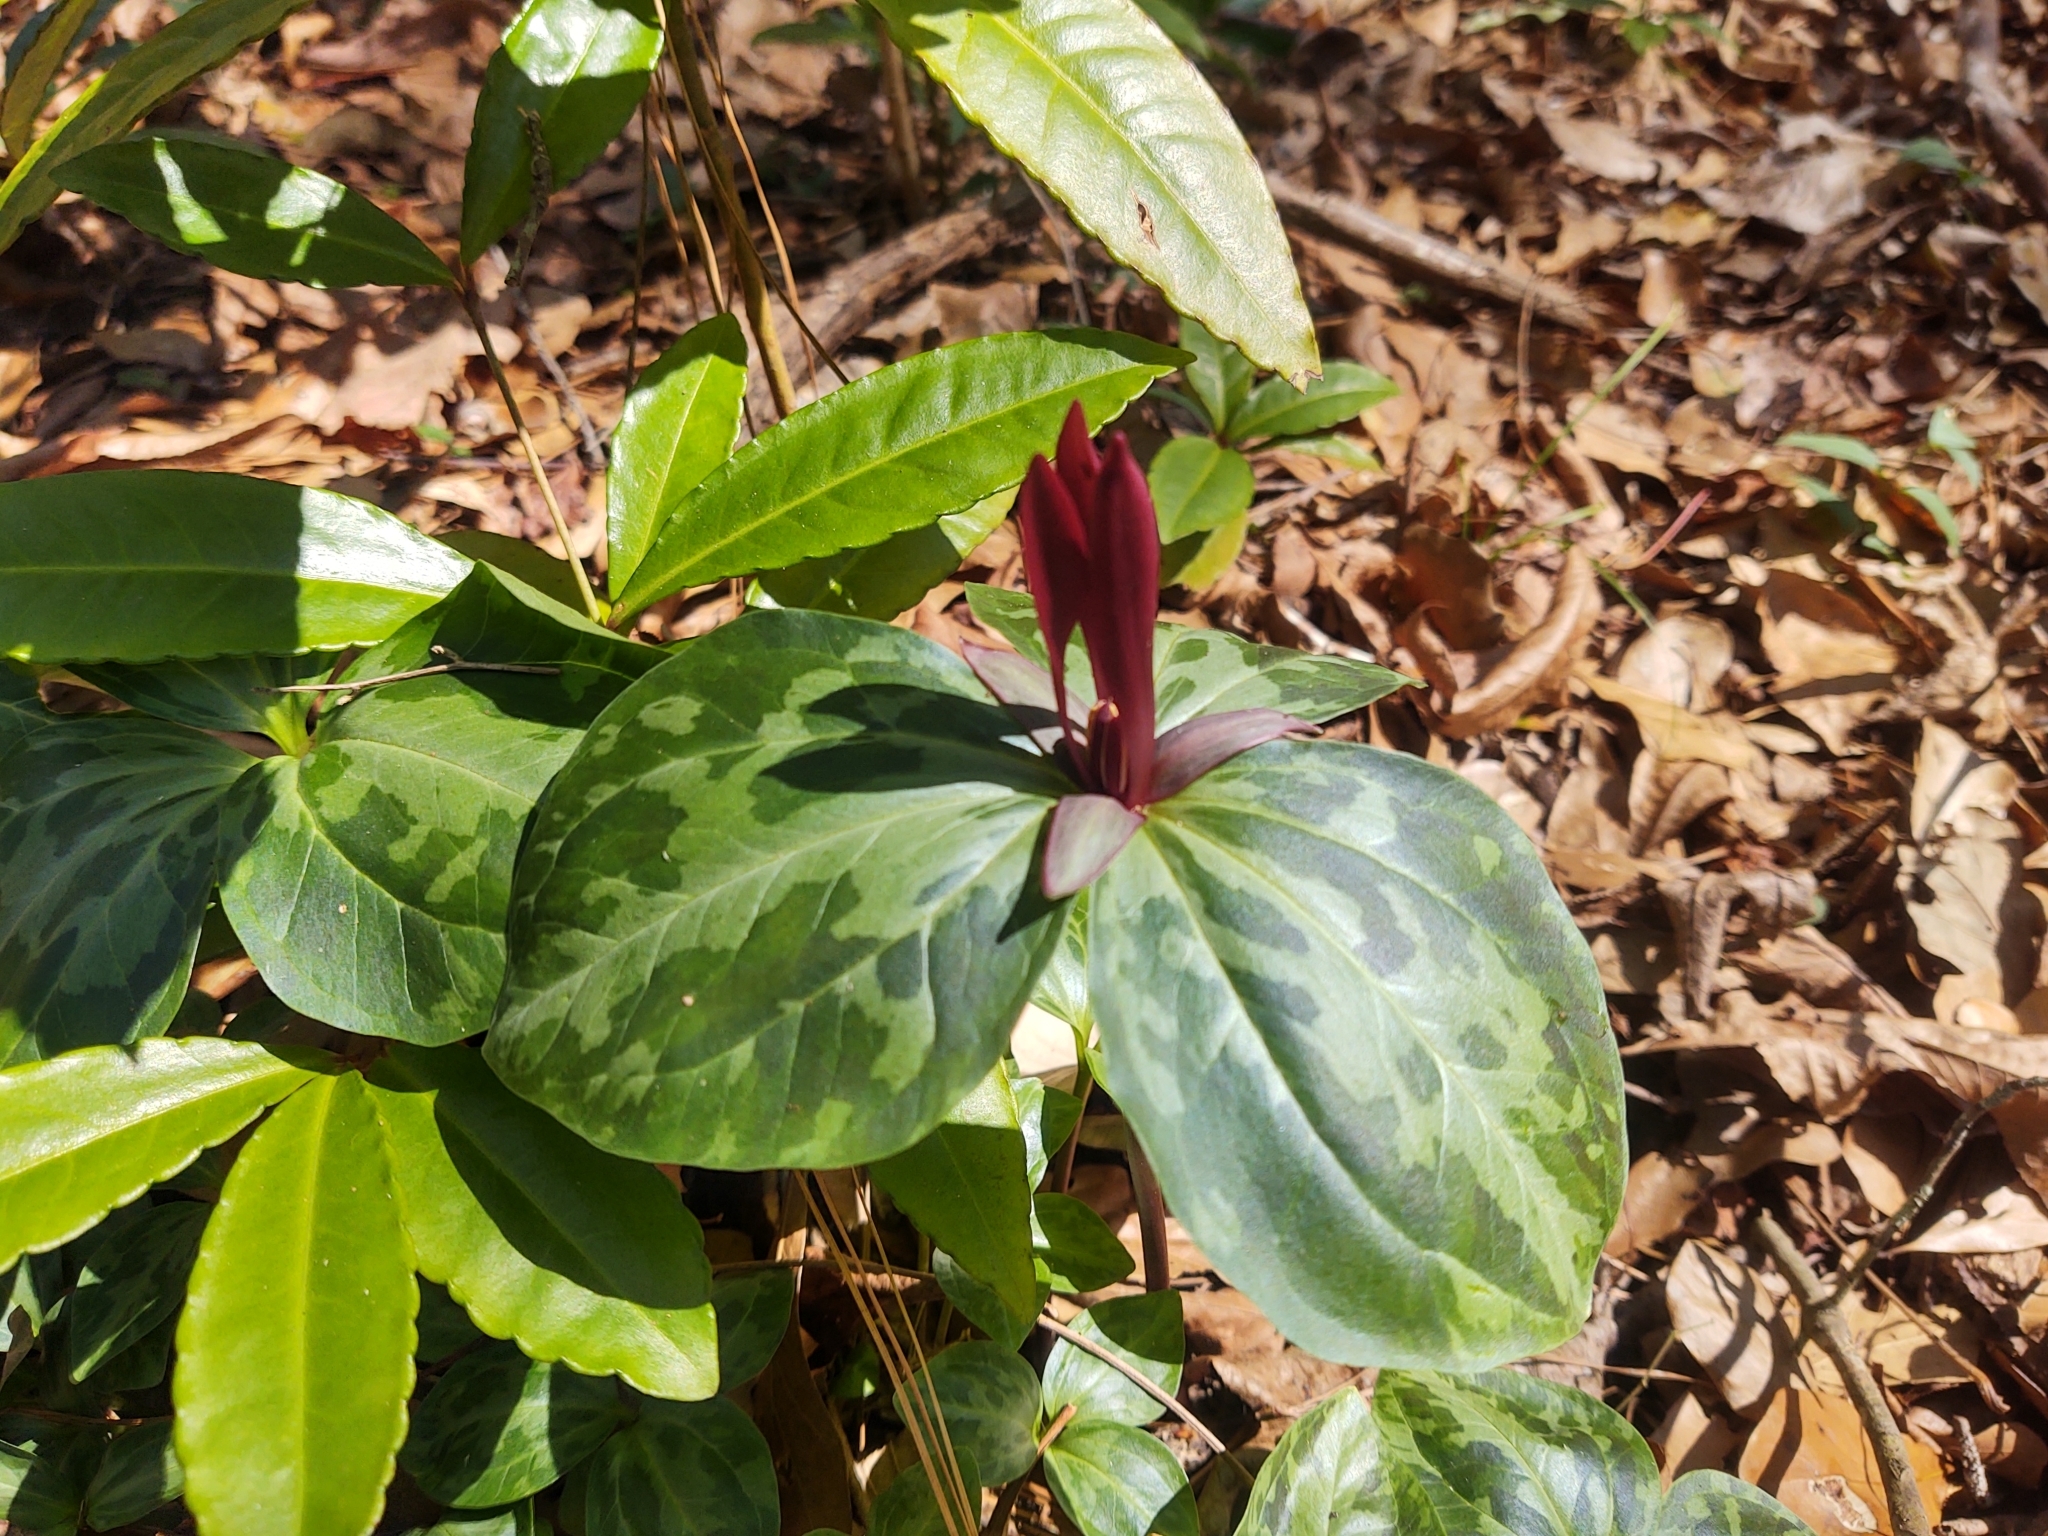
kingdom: Plantae
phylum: Tracheophyta
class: Liliopsida
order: Liliales
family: Melanthiaceae
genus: Trillium
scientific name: Trillium maculatum
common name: Mottled trillium
